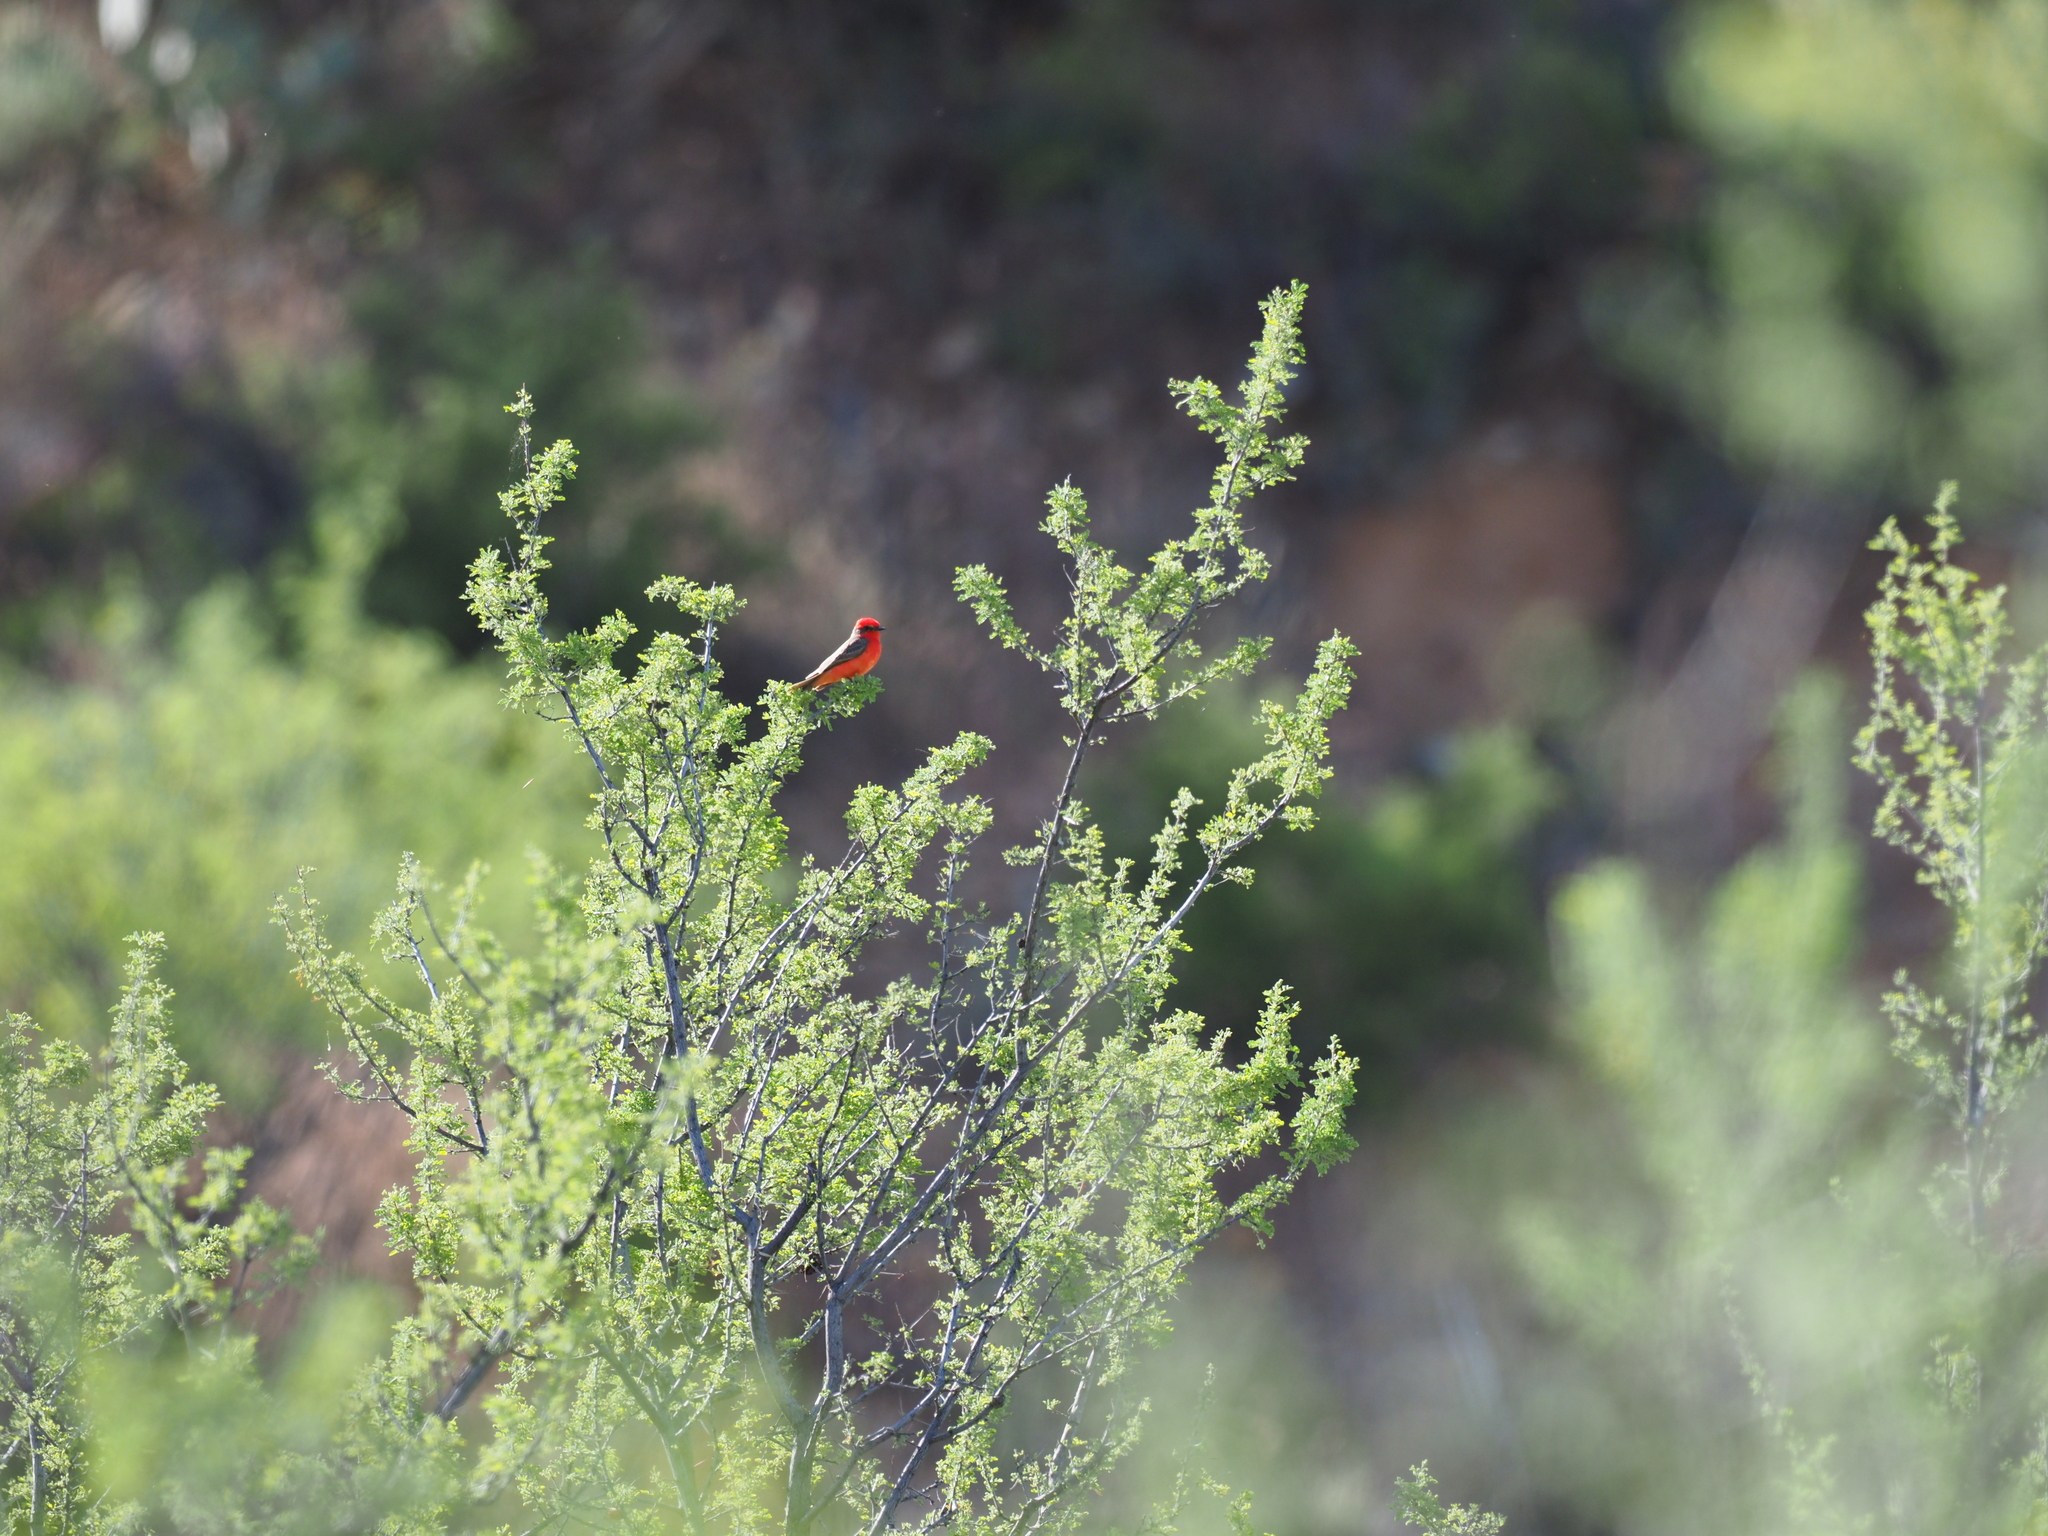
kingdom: Animalia
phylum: Chordata
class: Aves
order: Passeriformes
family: Tyrannidae
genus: Pyrocephalus
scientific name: Pyrocephalus rubinus
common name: Vermilion flycatcher
